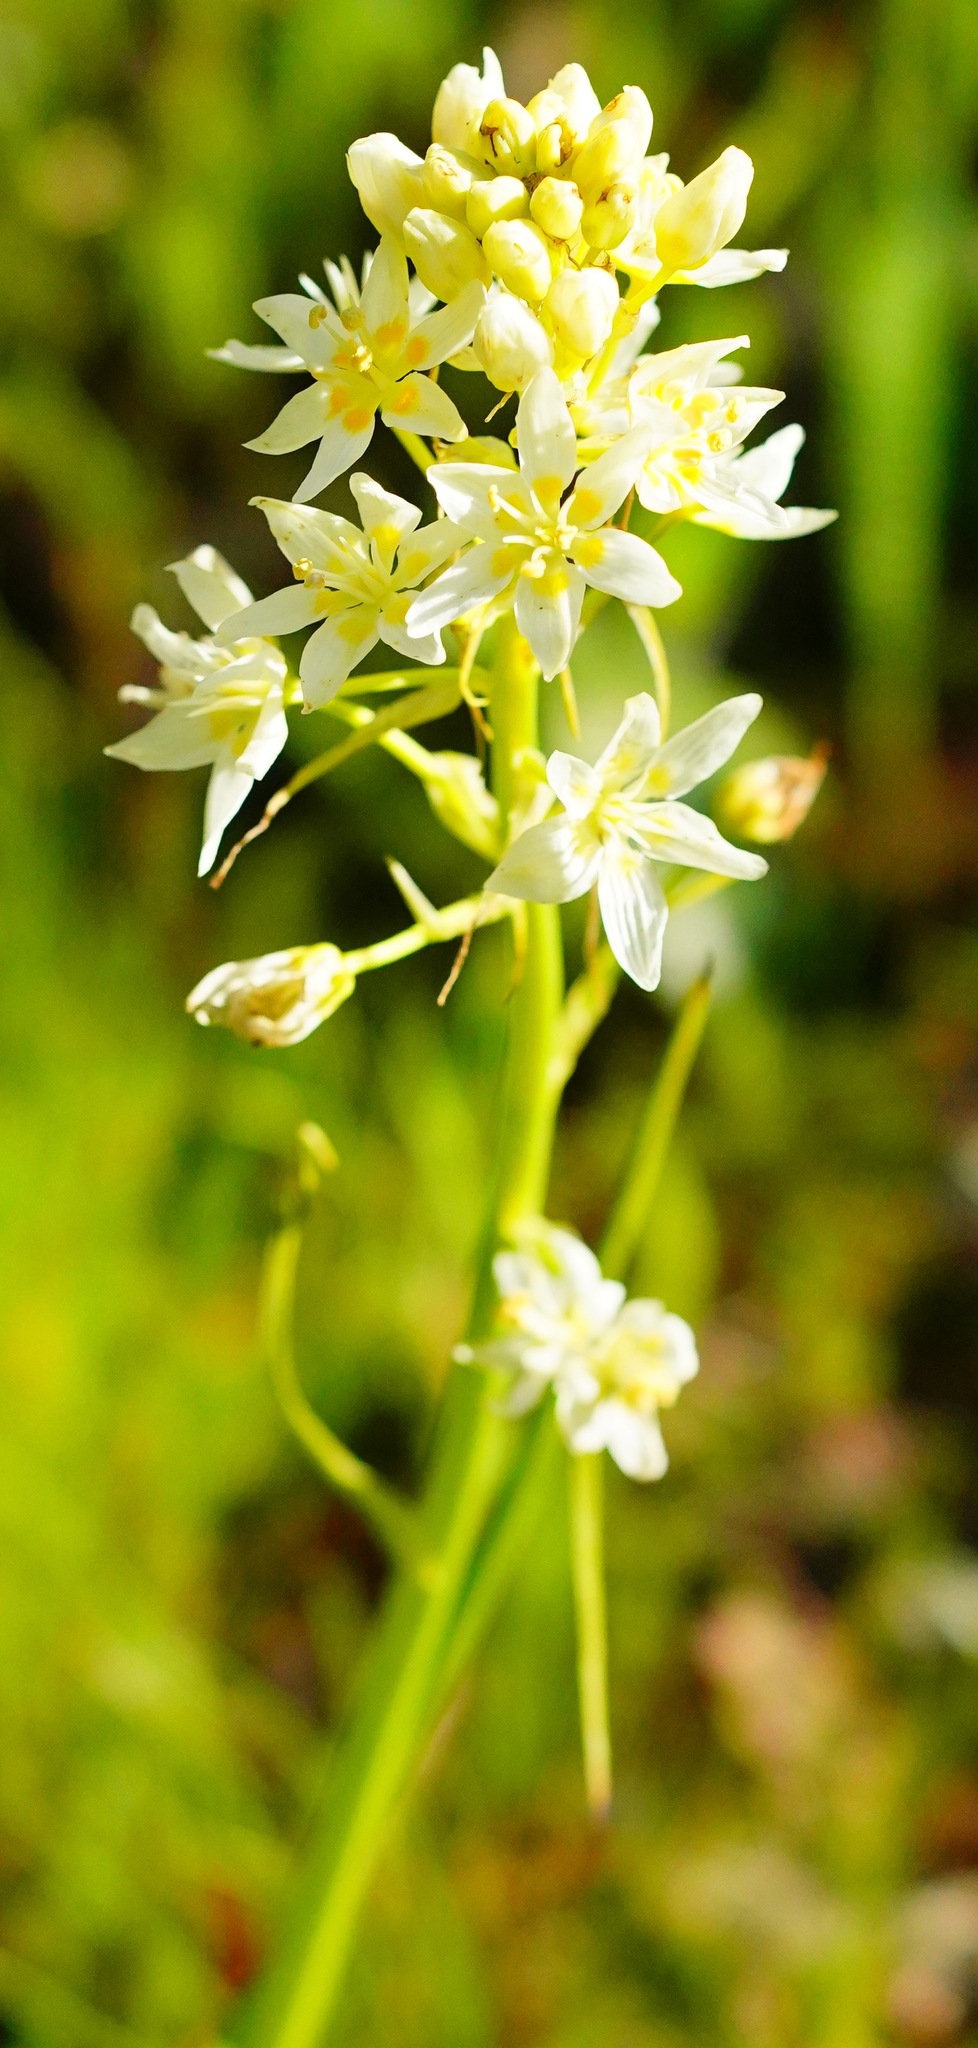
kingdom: Plantae
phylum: Tracheophyta
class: Liliopsida
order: Liliales
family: Melanthiaceae
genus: Toxicoscordion
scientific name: Toxicoscordion fremontii
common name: Fremont's death camas
